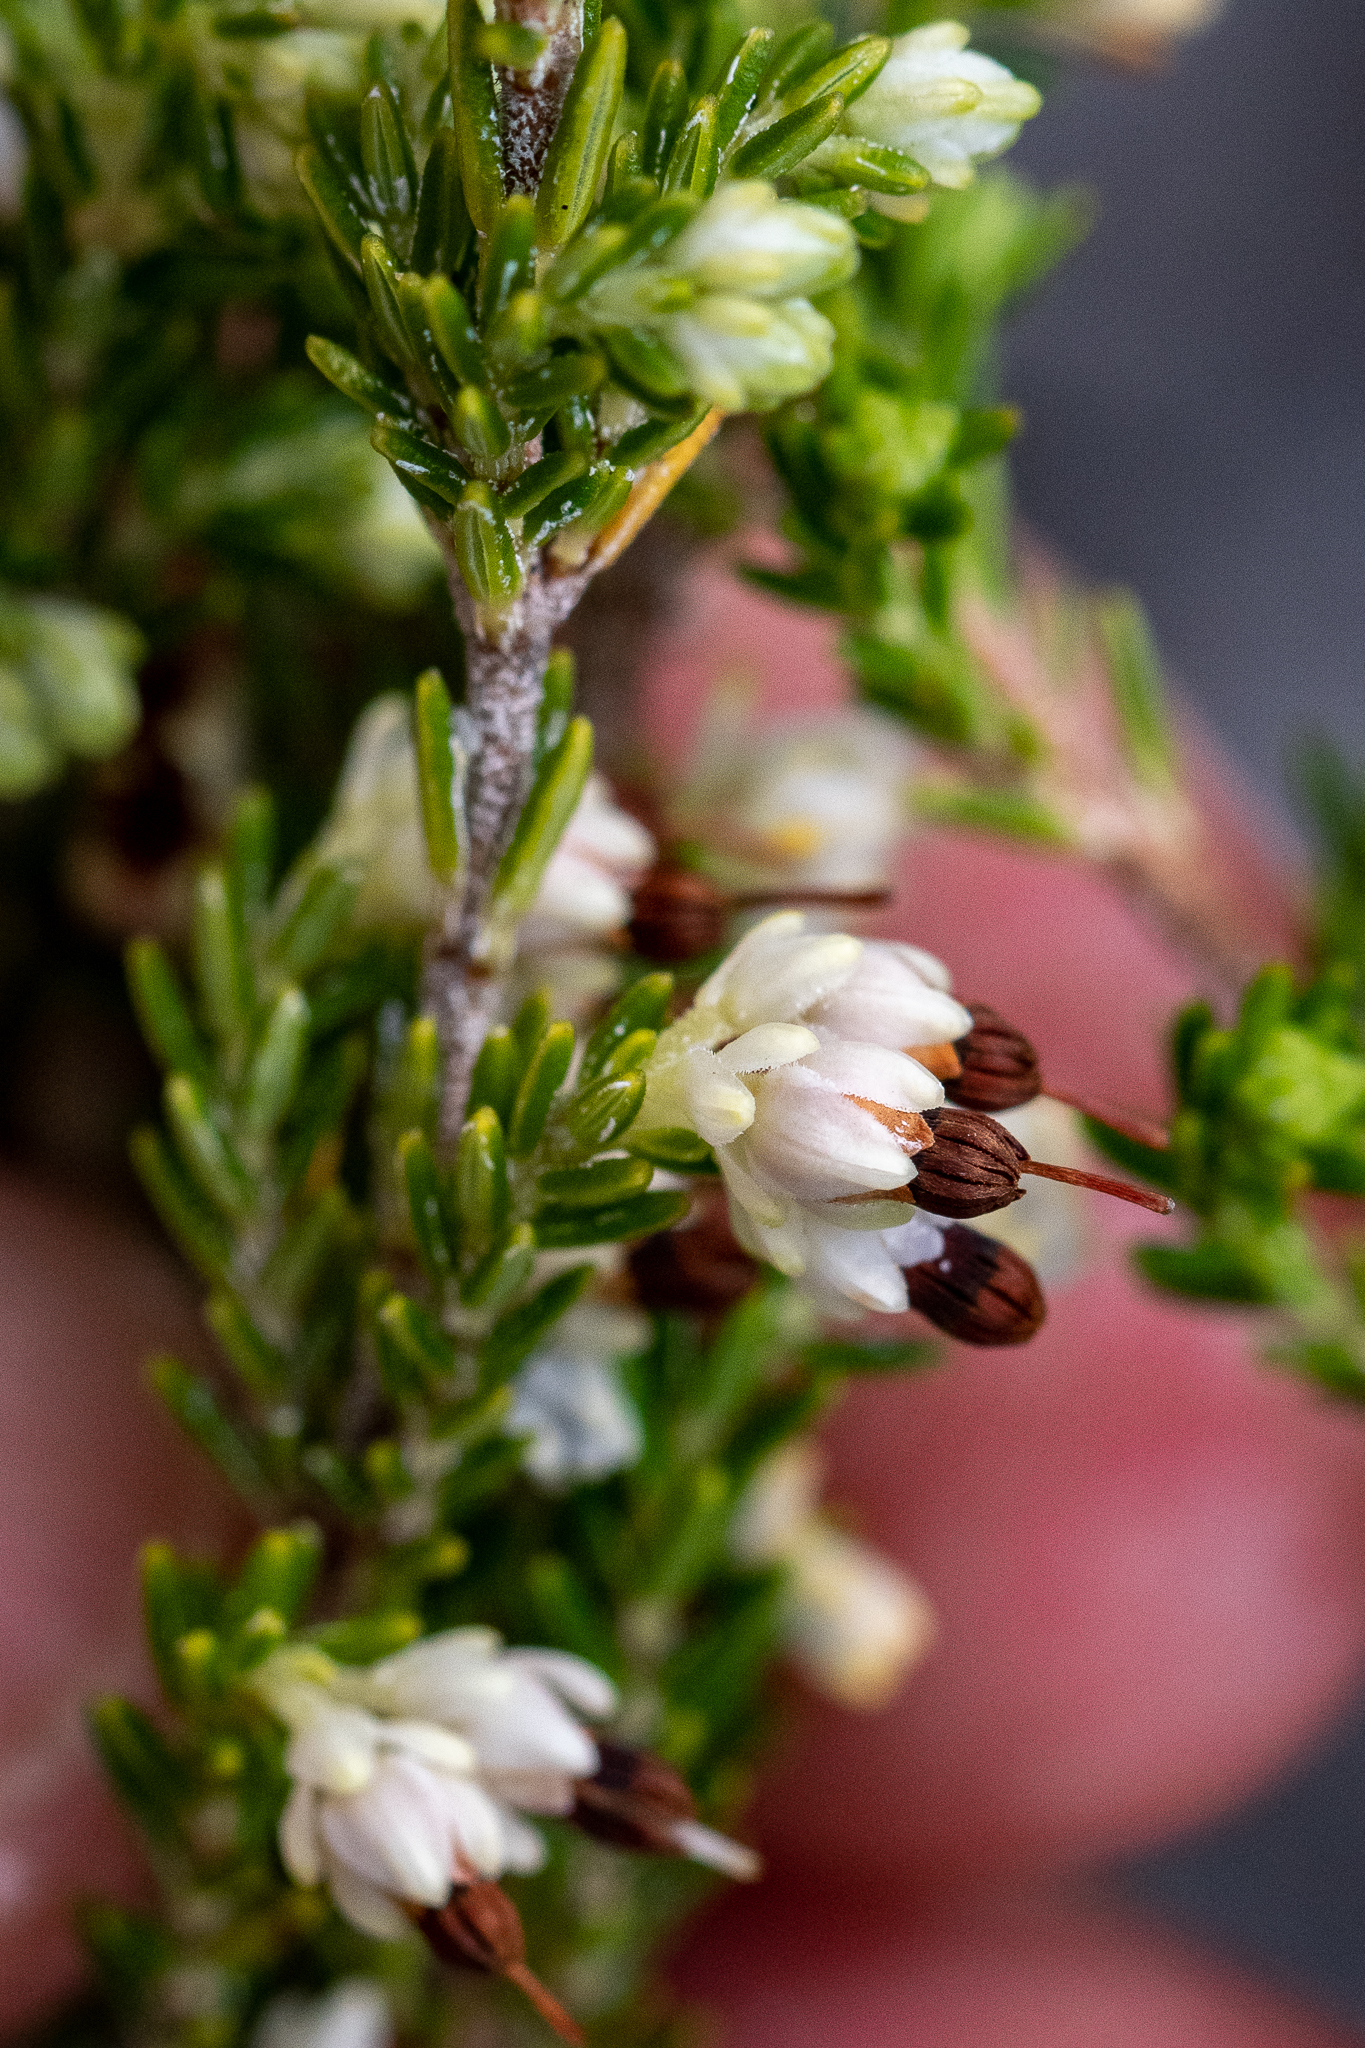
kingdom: Plantae
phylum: Tracheophyta
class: Magnoliopsida
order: Ericales
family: Ericaceae
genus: Erica
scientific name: Erica imbricata
